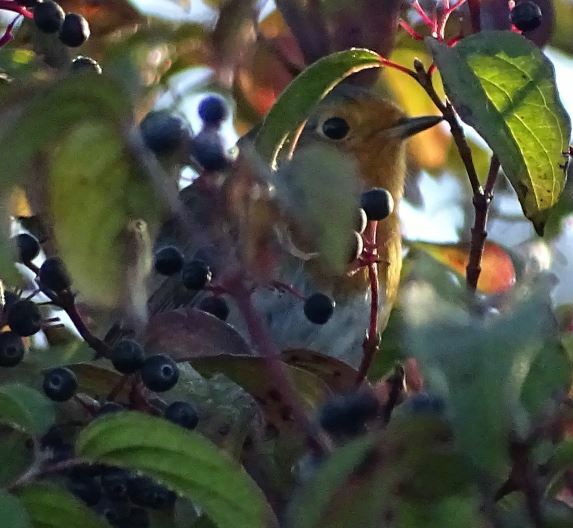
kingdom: Animalia
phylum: Chordata
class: Aves
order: Passeriformes
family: Muscicapidae
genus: Erithacus
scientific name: Erithacus rubecula
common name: European robin
